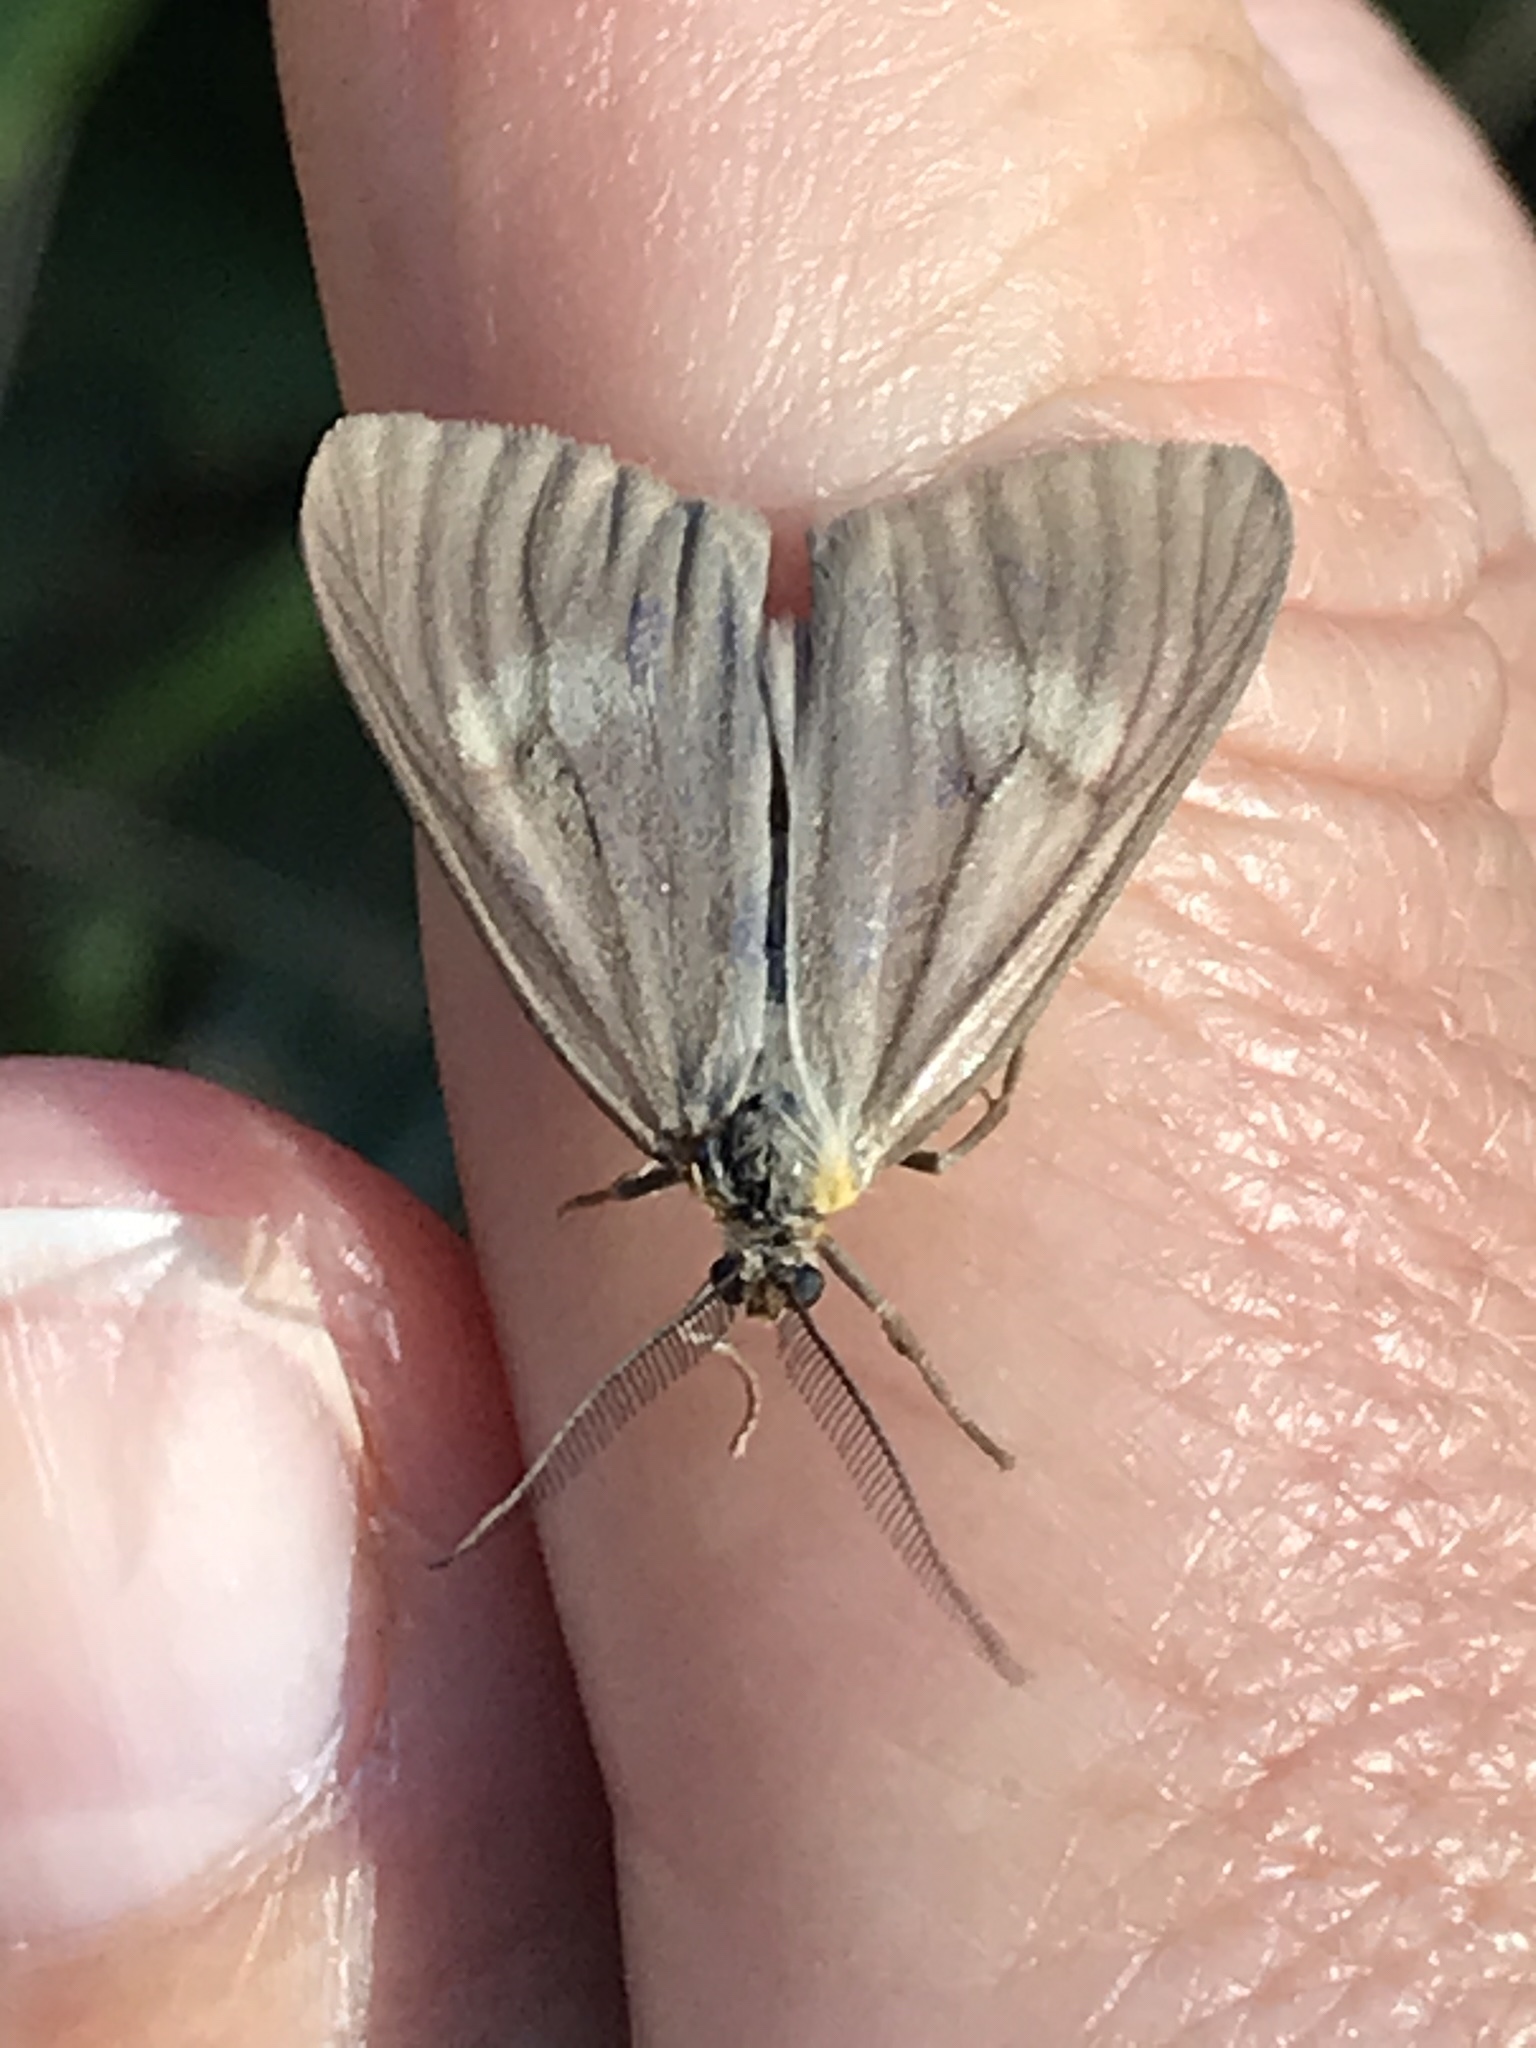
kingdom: Animalia
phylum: Arthropoda
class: Insecta
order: Lepidoptera
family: Notodontidae
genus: Phryganidia
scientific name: Phryganidia californica
